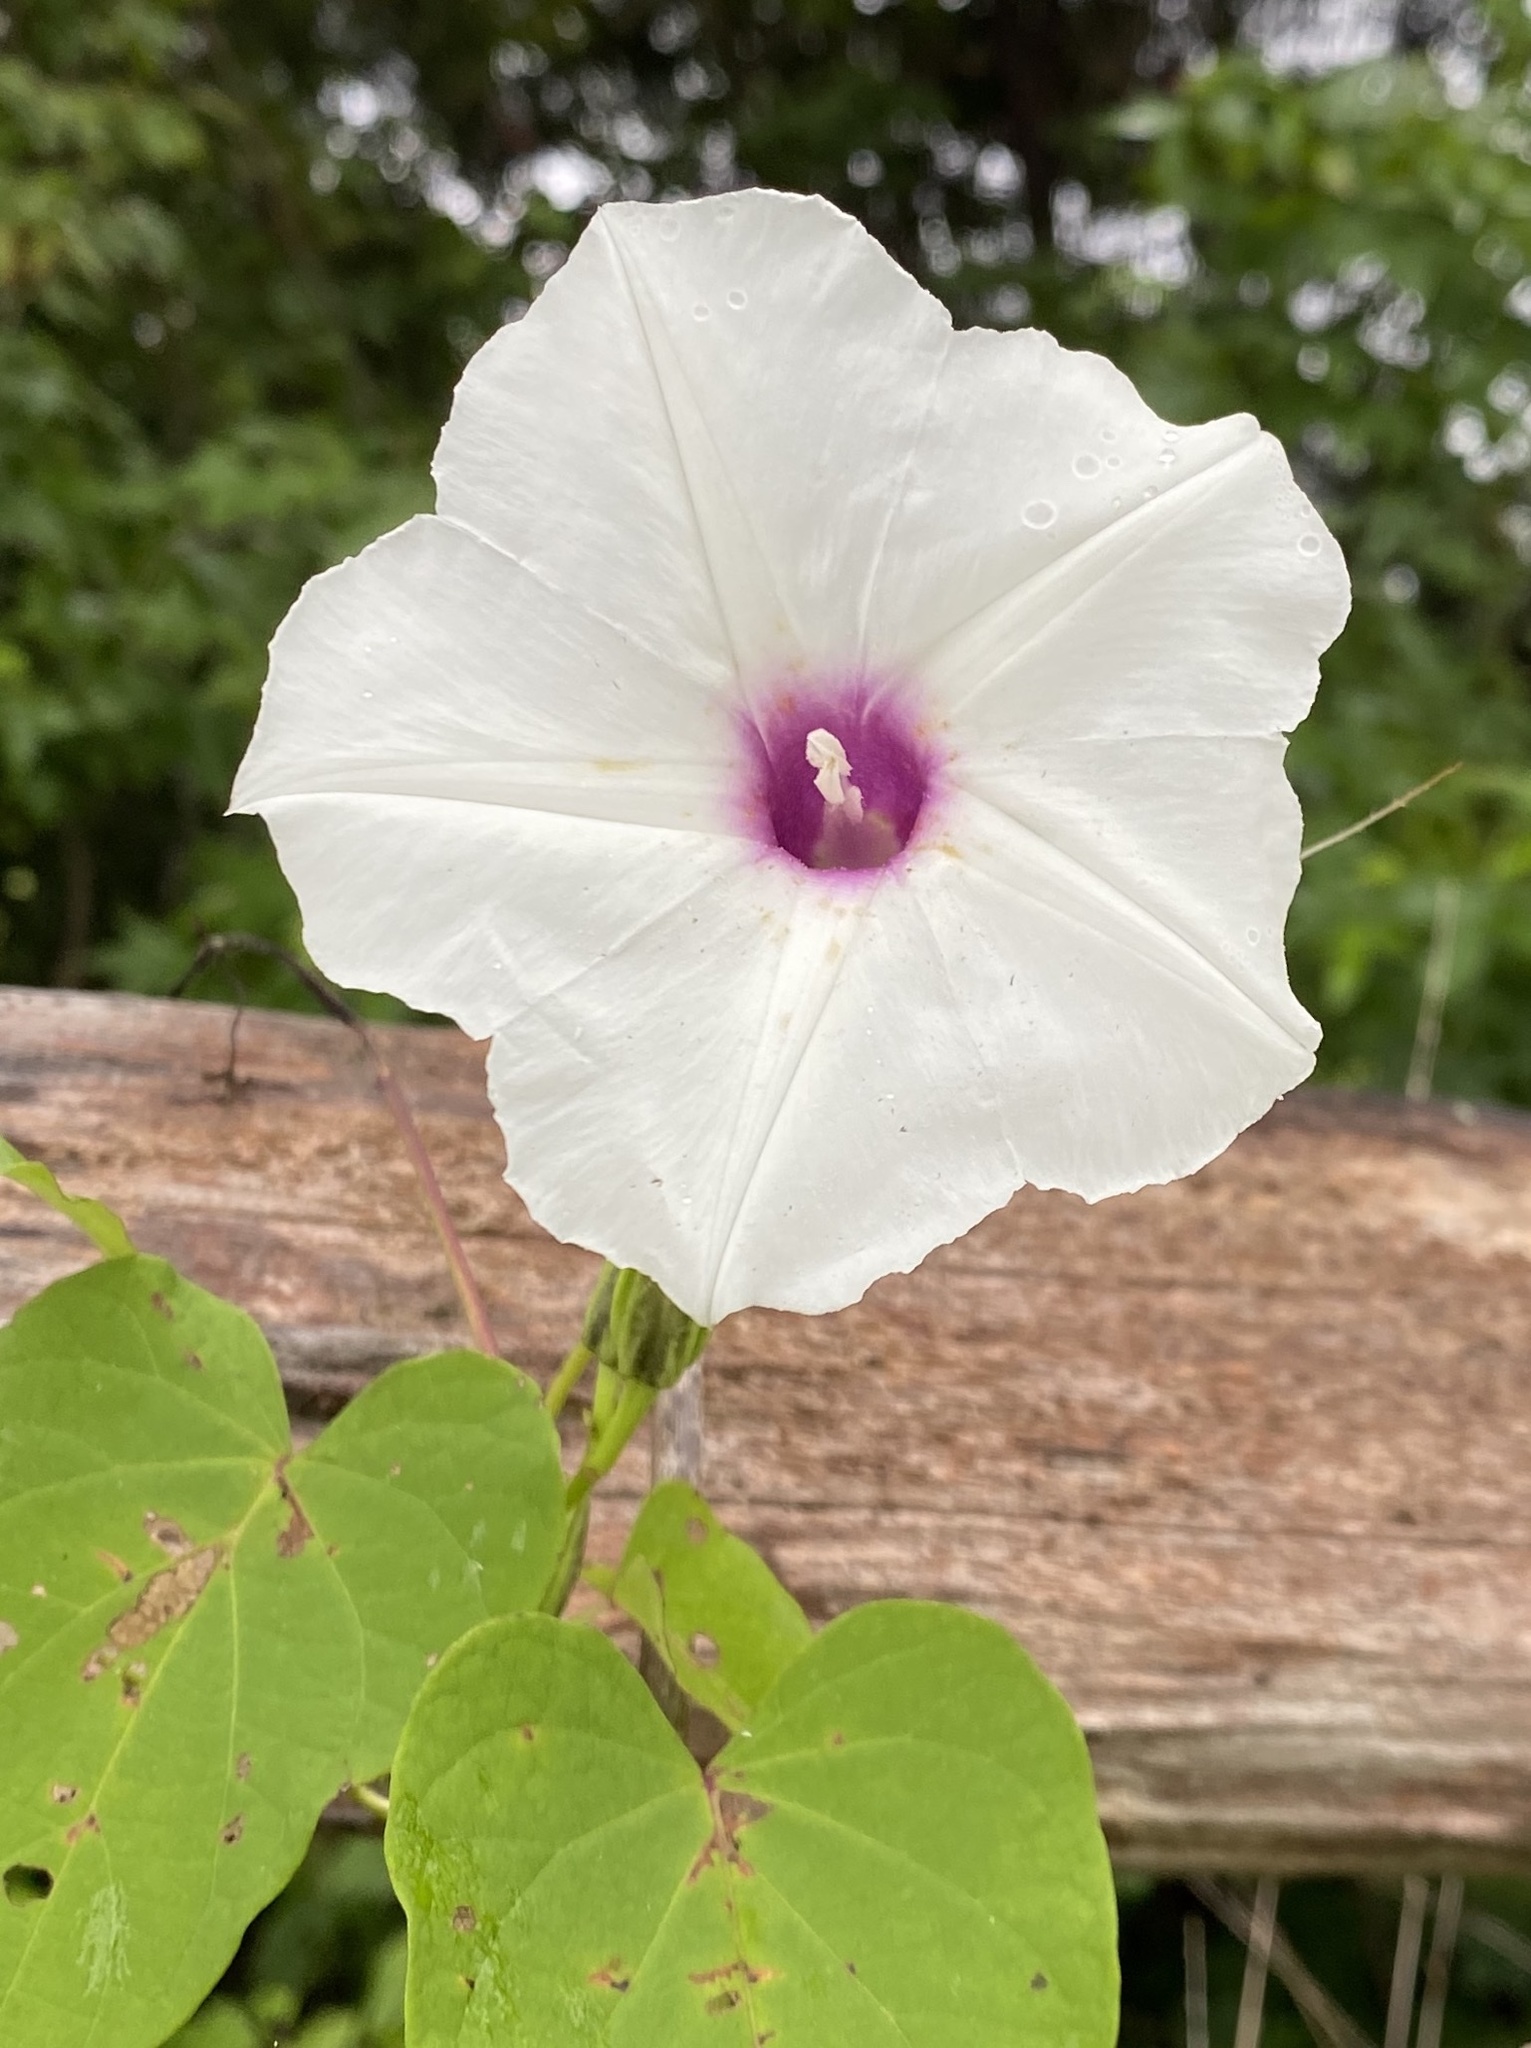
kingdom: Plantae
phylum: Tracheophyta
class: Magnoliopsida
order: Solanales
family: Convolvulaceae
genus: Ipomoea
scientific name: Ipomoea pandurata
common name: Man-of-the-earth
